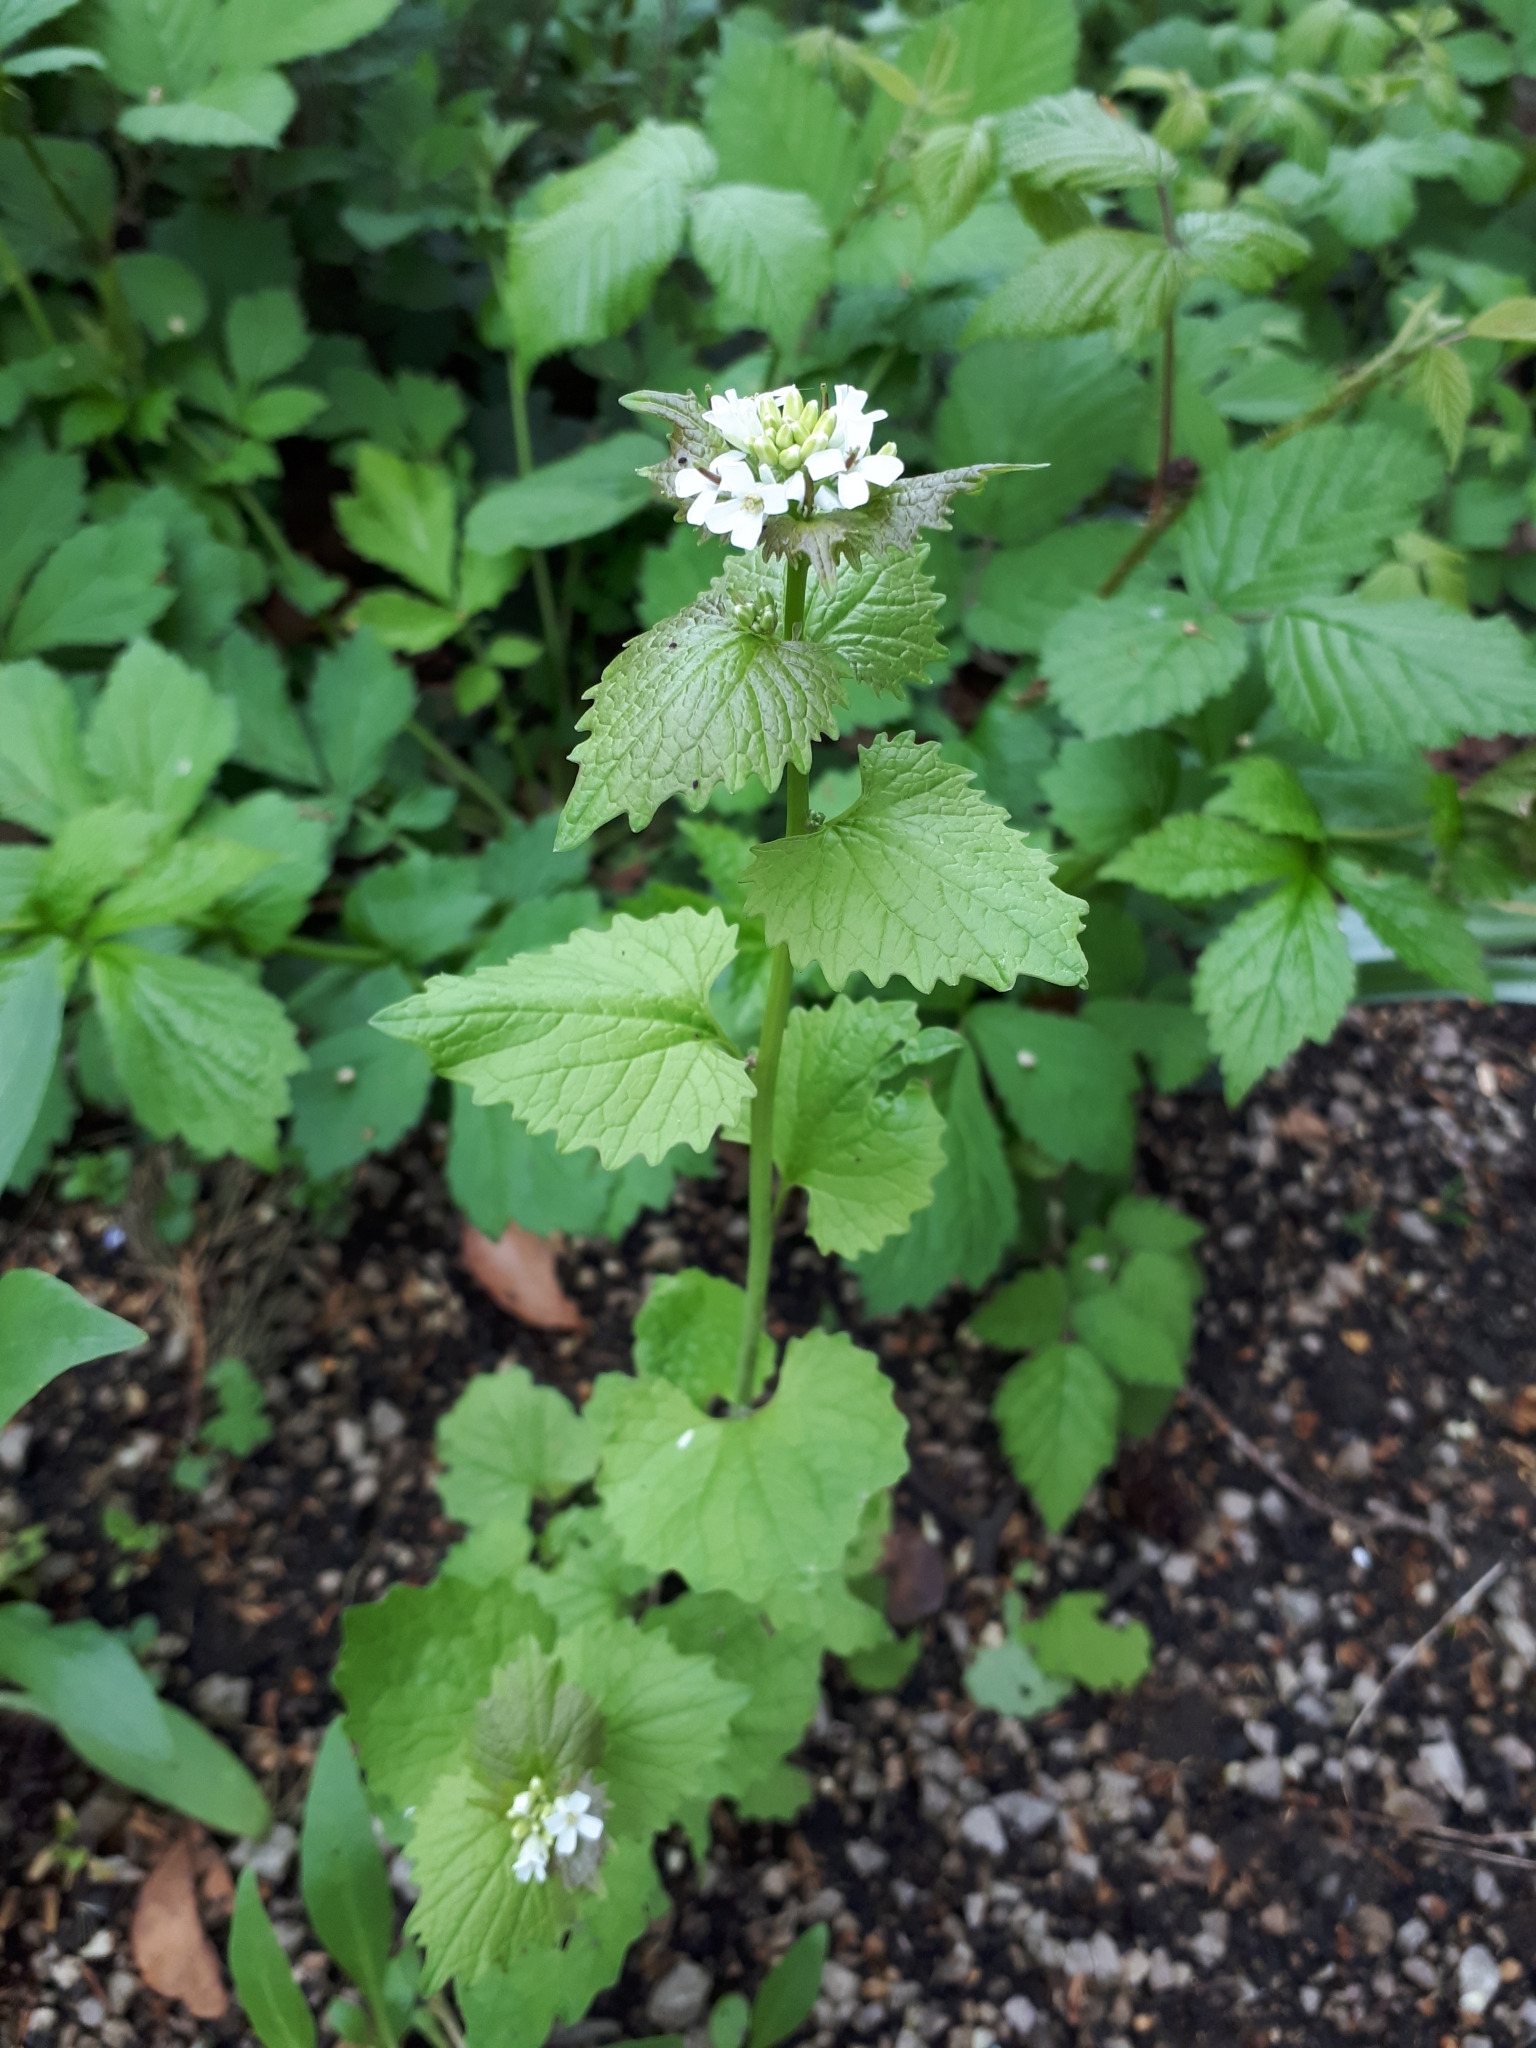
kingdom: Plantae
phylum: Tracheophyta
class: Magnoliopsida
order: Brassicales
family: Brassicaceae
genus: Alliaria
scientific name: Alliaria petiolata
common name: Garlic mustard
